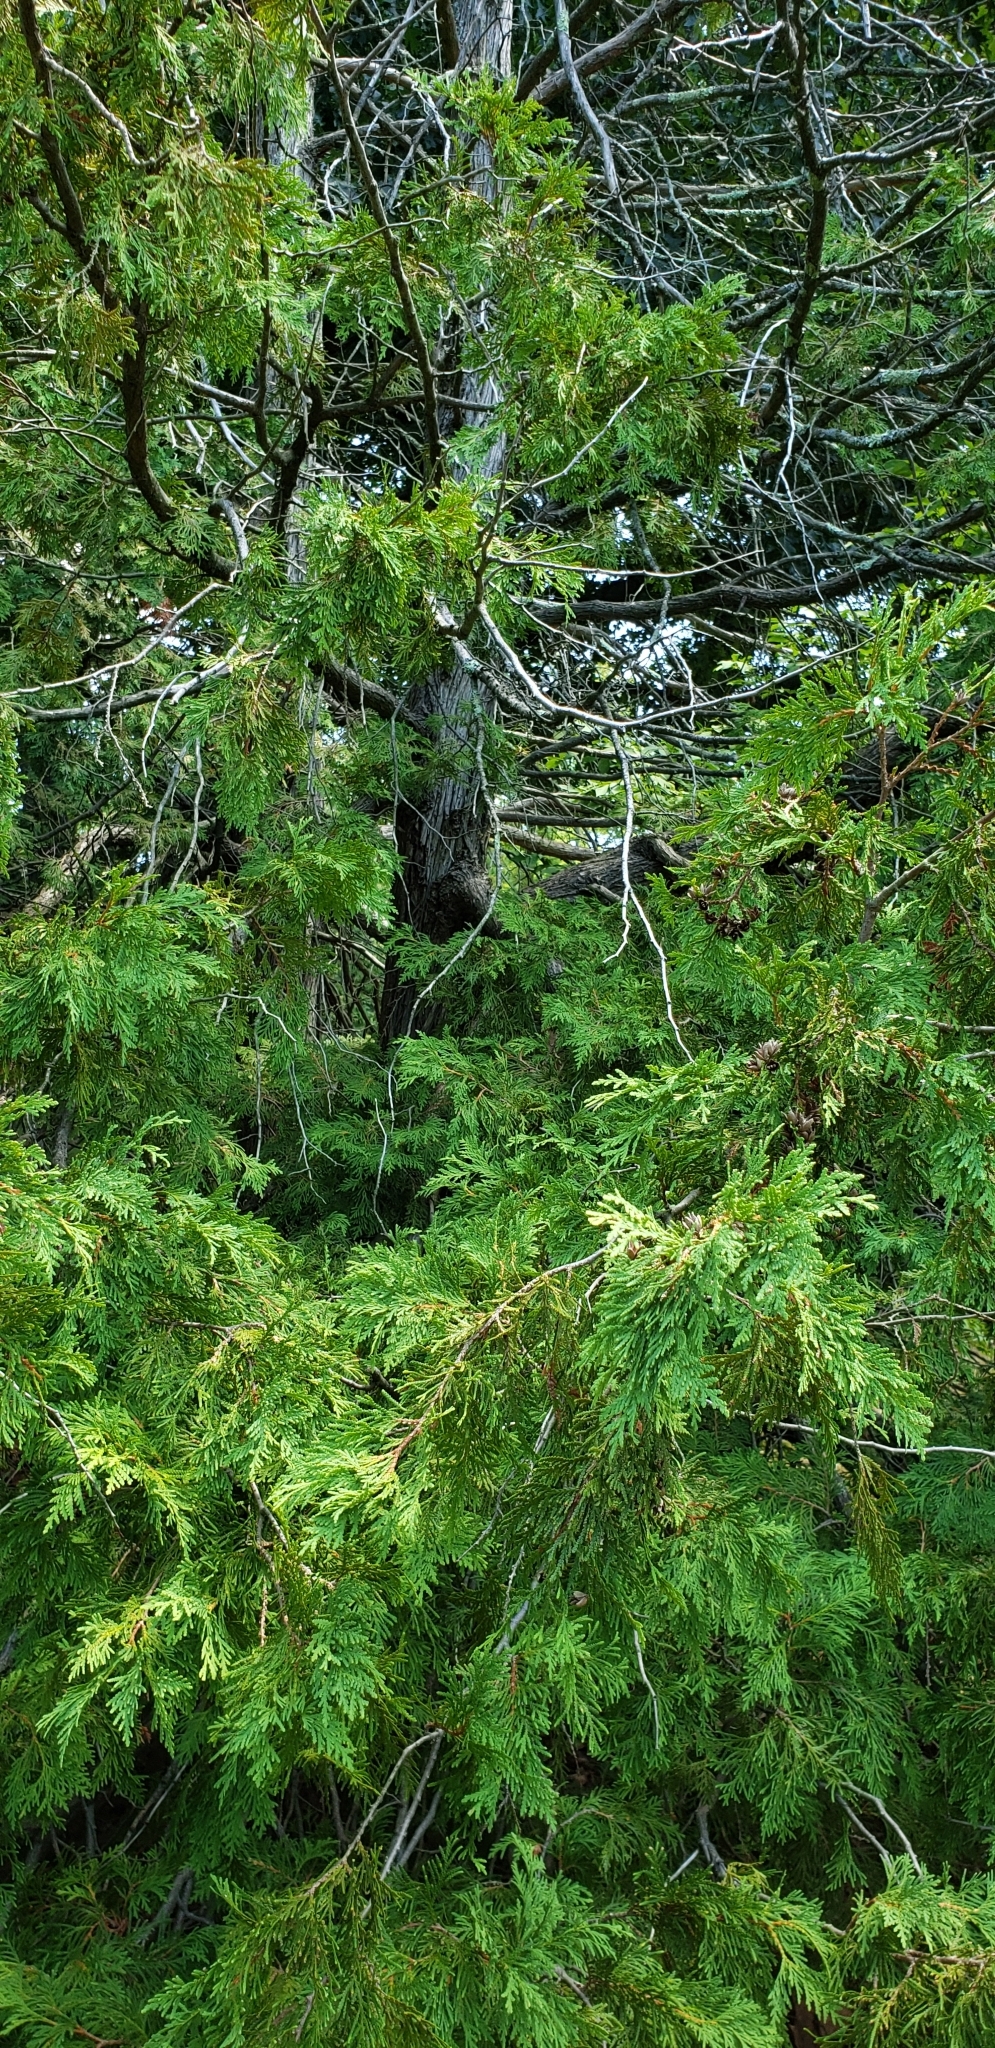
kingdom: Plantae
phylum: Tracheophyta
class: Pinopsida
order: Pinales
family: Cupressaceae
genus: Thuja
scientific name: Thuja occidentalis
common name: Northern white-cedar
